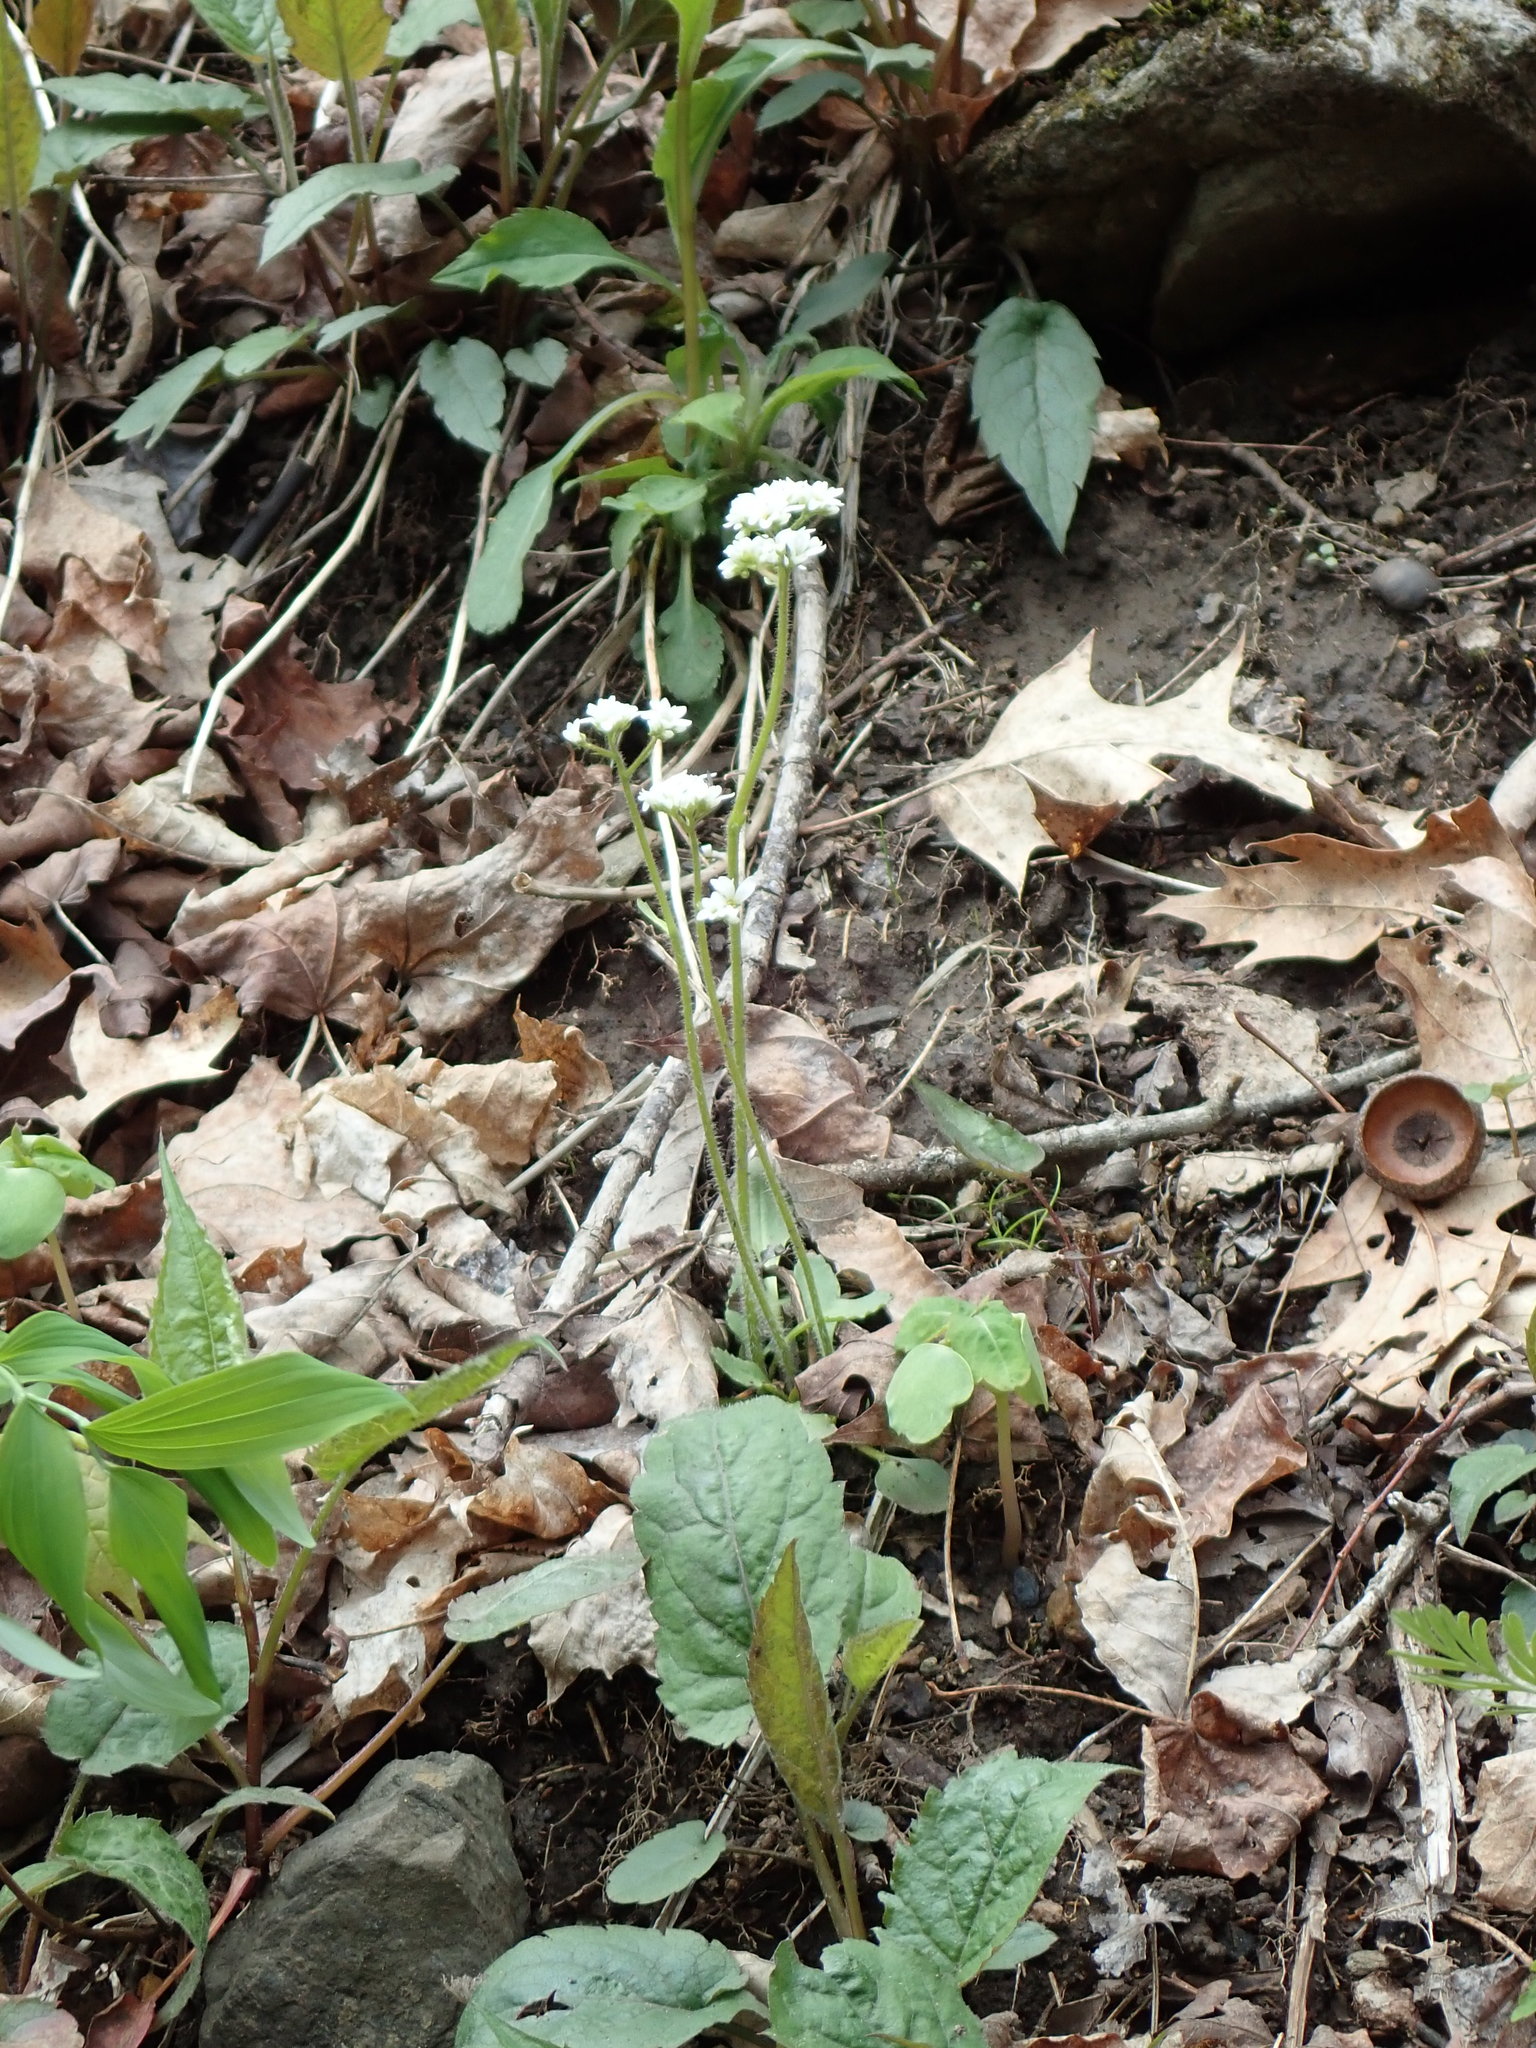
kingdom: Plantae
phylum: Tracheophyta
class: Magnoliopsida
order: Saxifragales
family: Saxifragaceae
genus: Micranthes
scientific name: Micranthes virginiensis
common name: Early saxifrage
